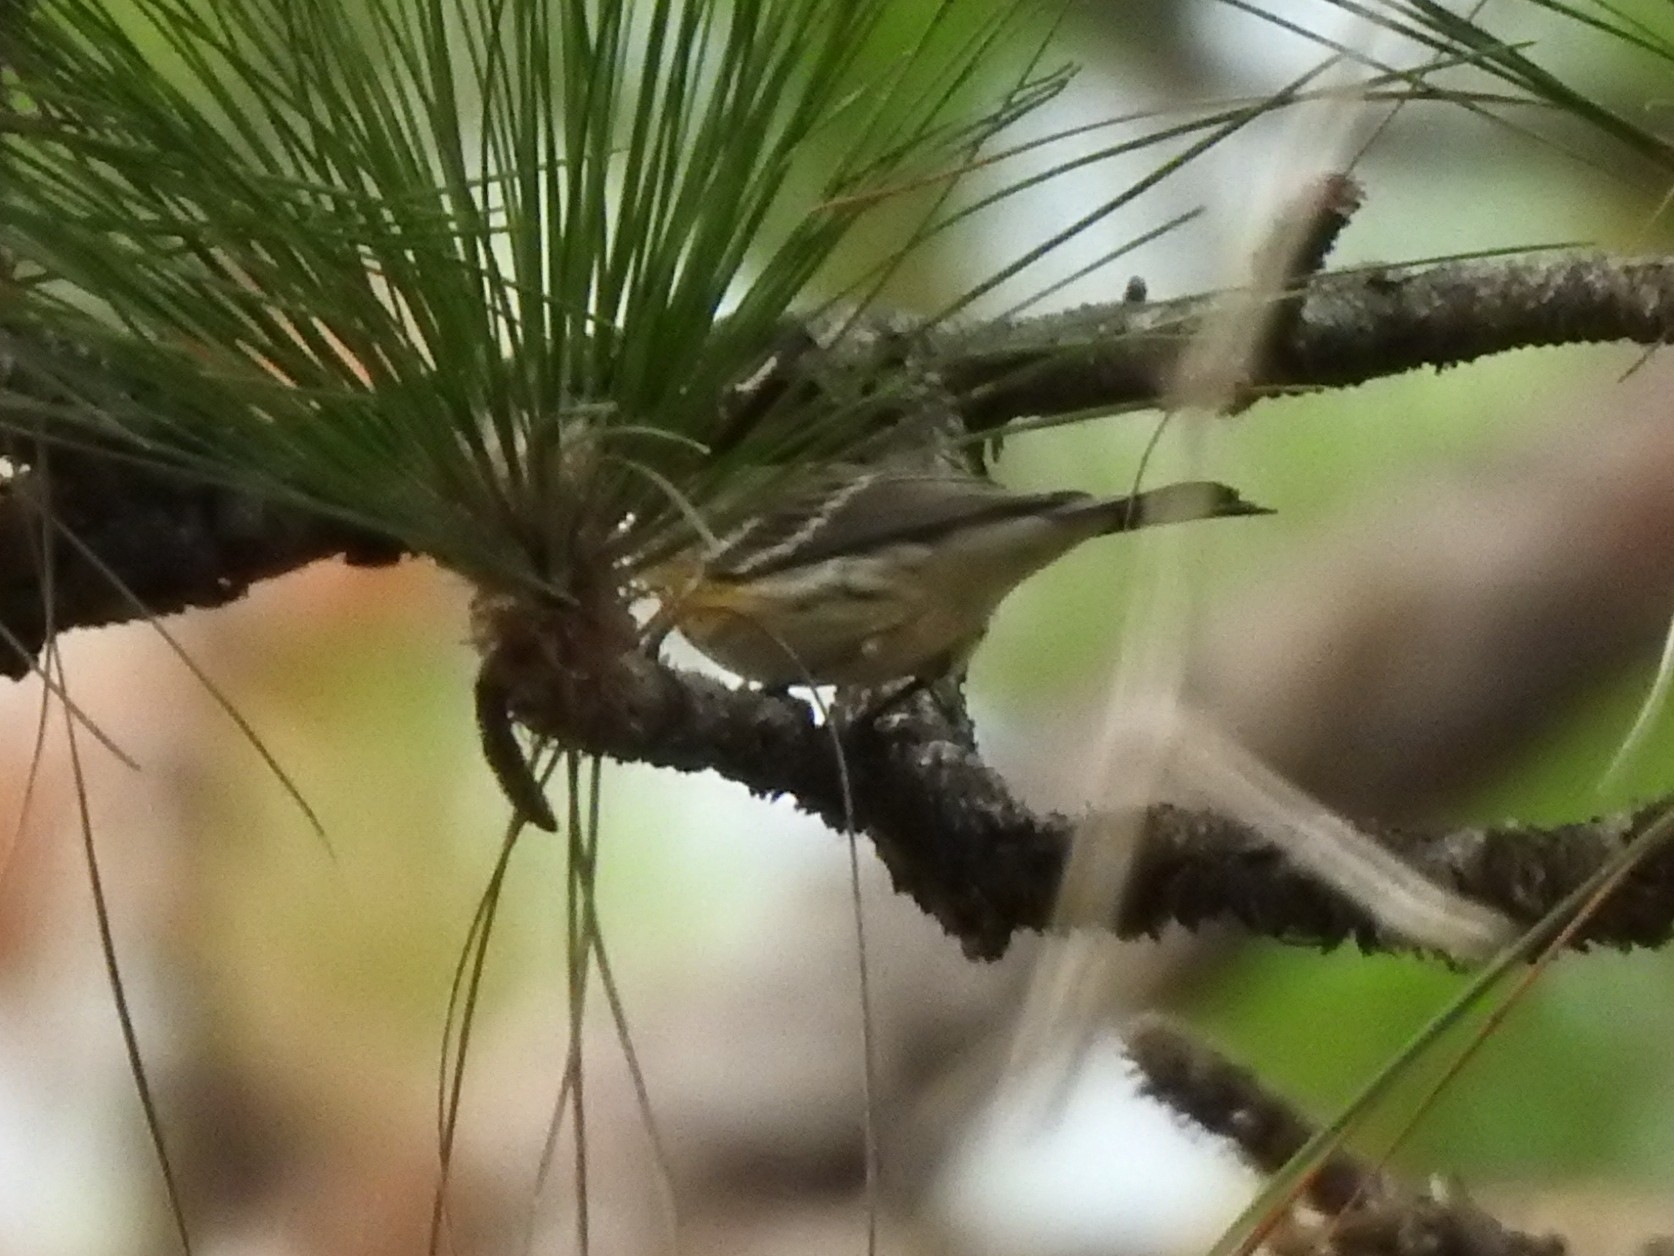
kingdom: Animalia
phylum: Chordata
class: Aves
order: Passeriformes
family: Parulidae
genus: Setophaga
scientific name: Setophaga coronata
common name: Myrtle warbler
